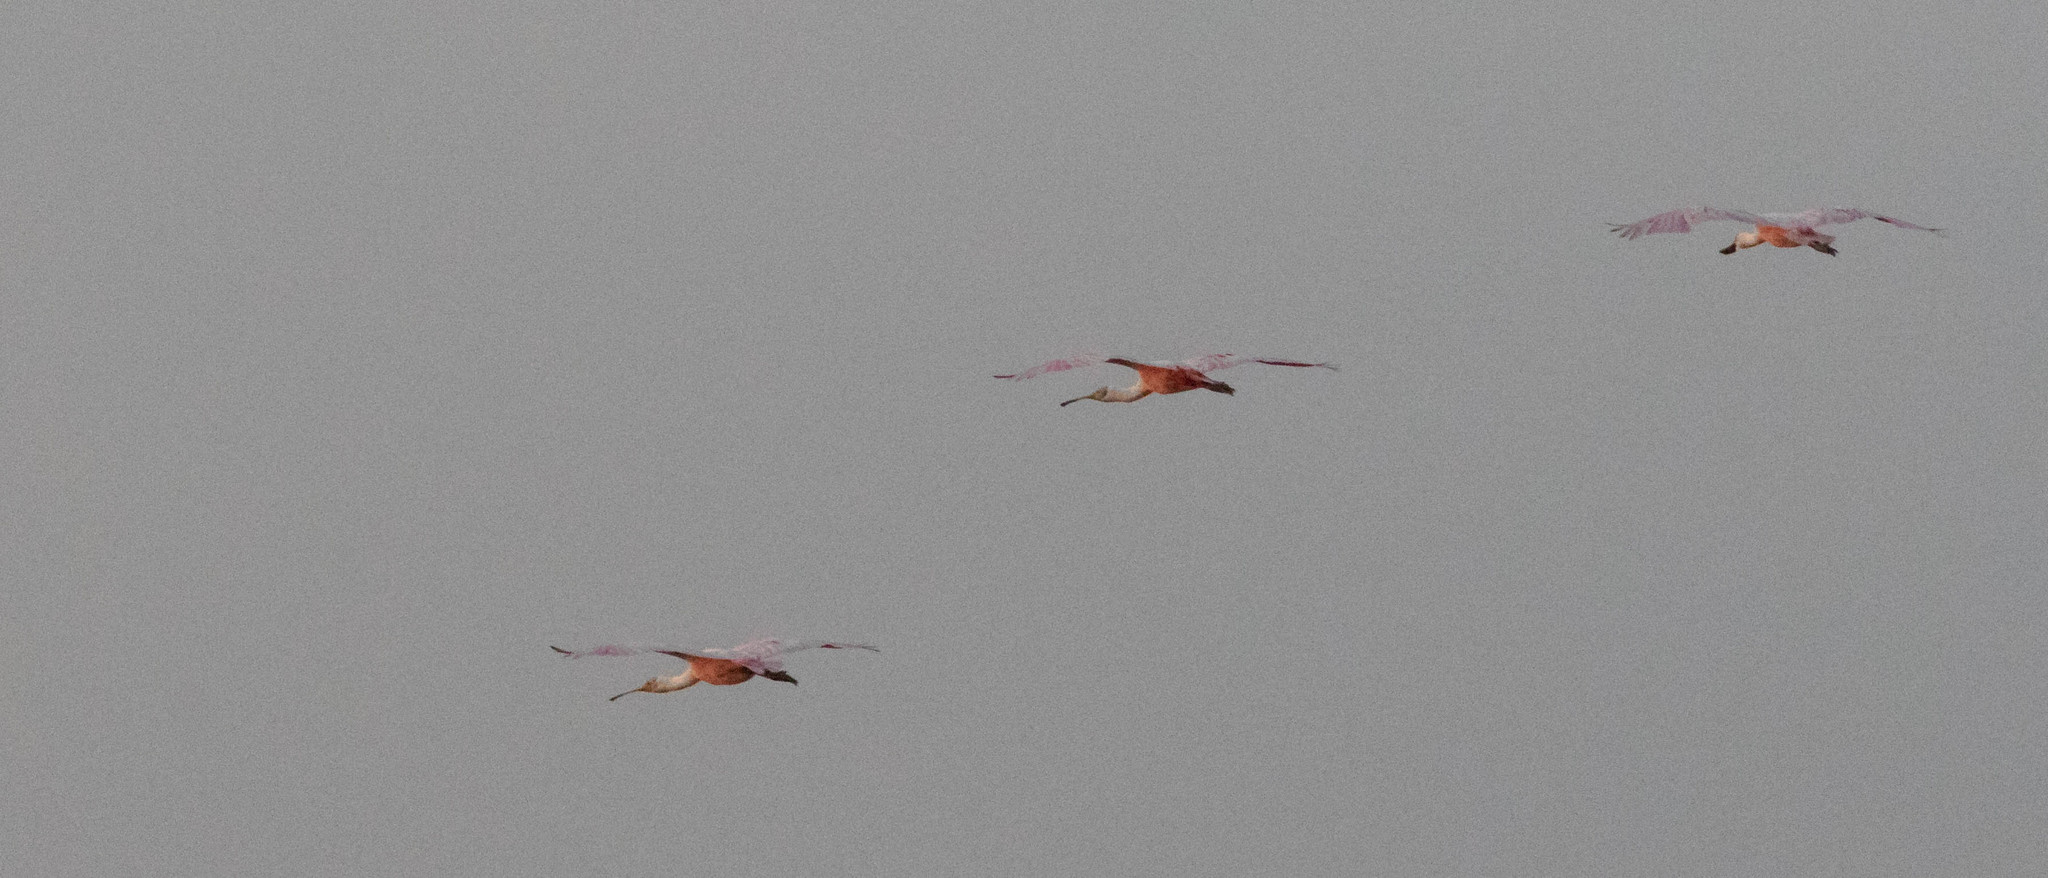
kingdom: Animalia
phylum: Chordata
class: Aves
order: Pelecaniformes
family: Threskiornithidae
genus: Platalea
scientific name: Platalea ajaja
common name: Roseate spoonbill
